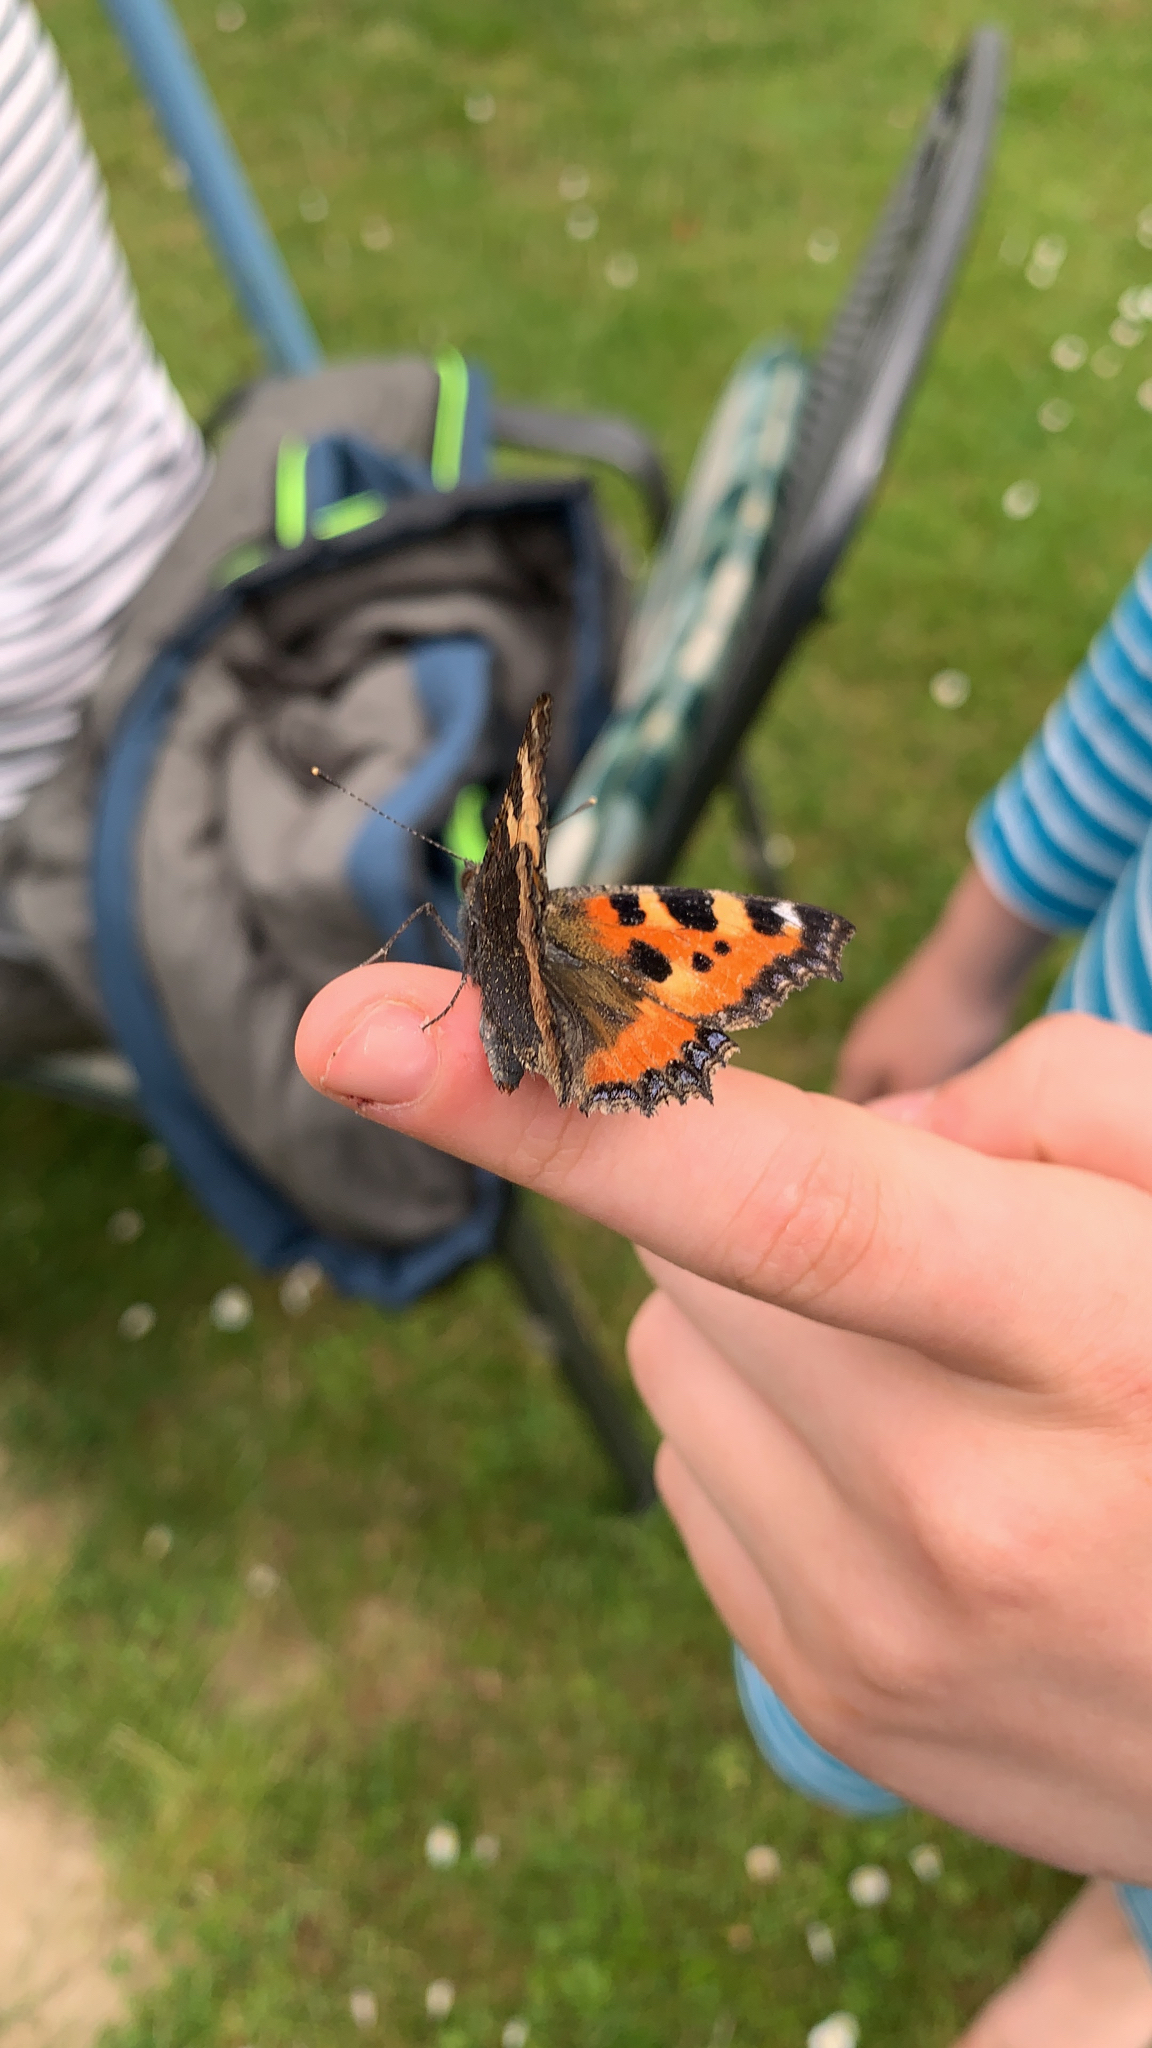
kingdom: Animalia
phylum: Arthropoda
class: Insecta
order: Lepidoptera
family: Nymphalidae
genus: Aglais
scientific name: Aglais urticae
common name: Small tortoiseshell
